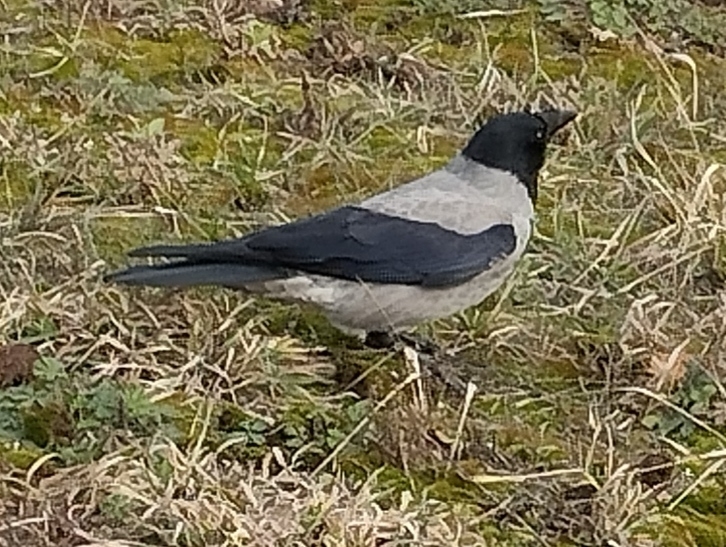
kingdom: Animalia
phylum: Chordata
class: Aves
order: Passeriformes
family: Corvidae
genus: Corvus
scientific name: Corvus cornix
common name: Hooded crow
